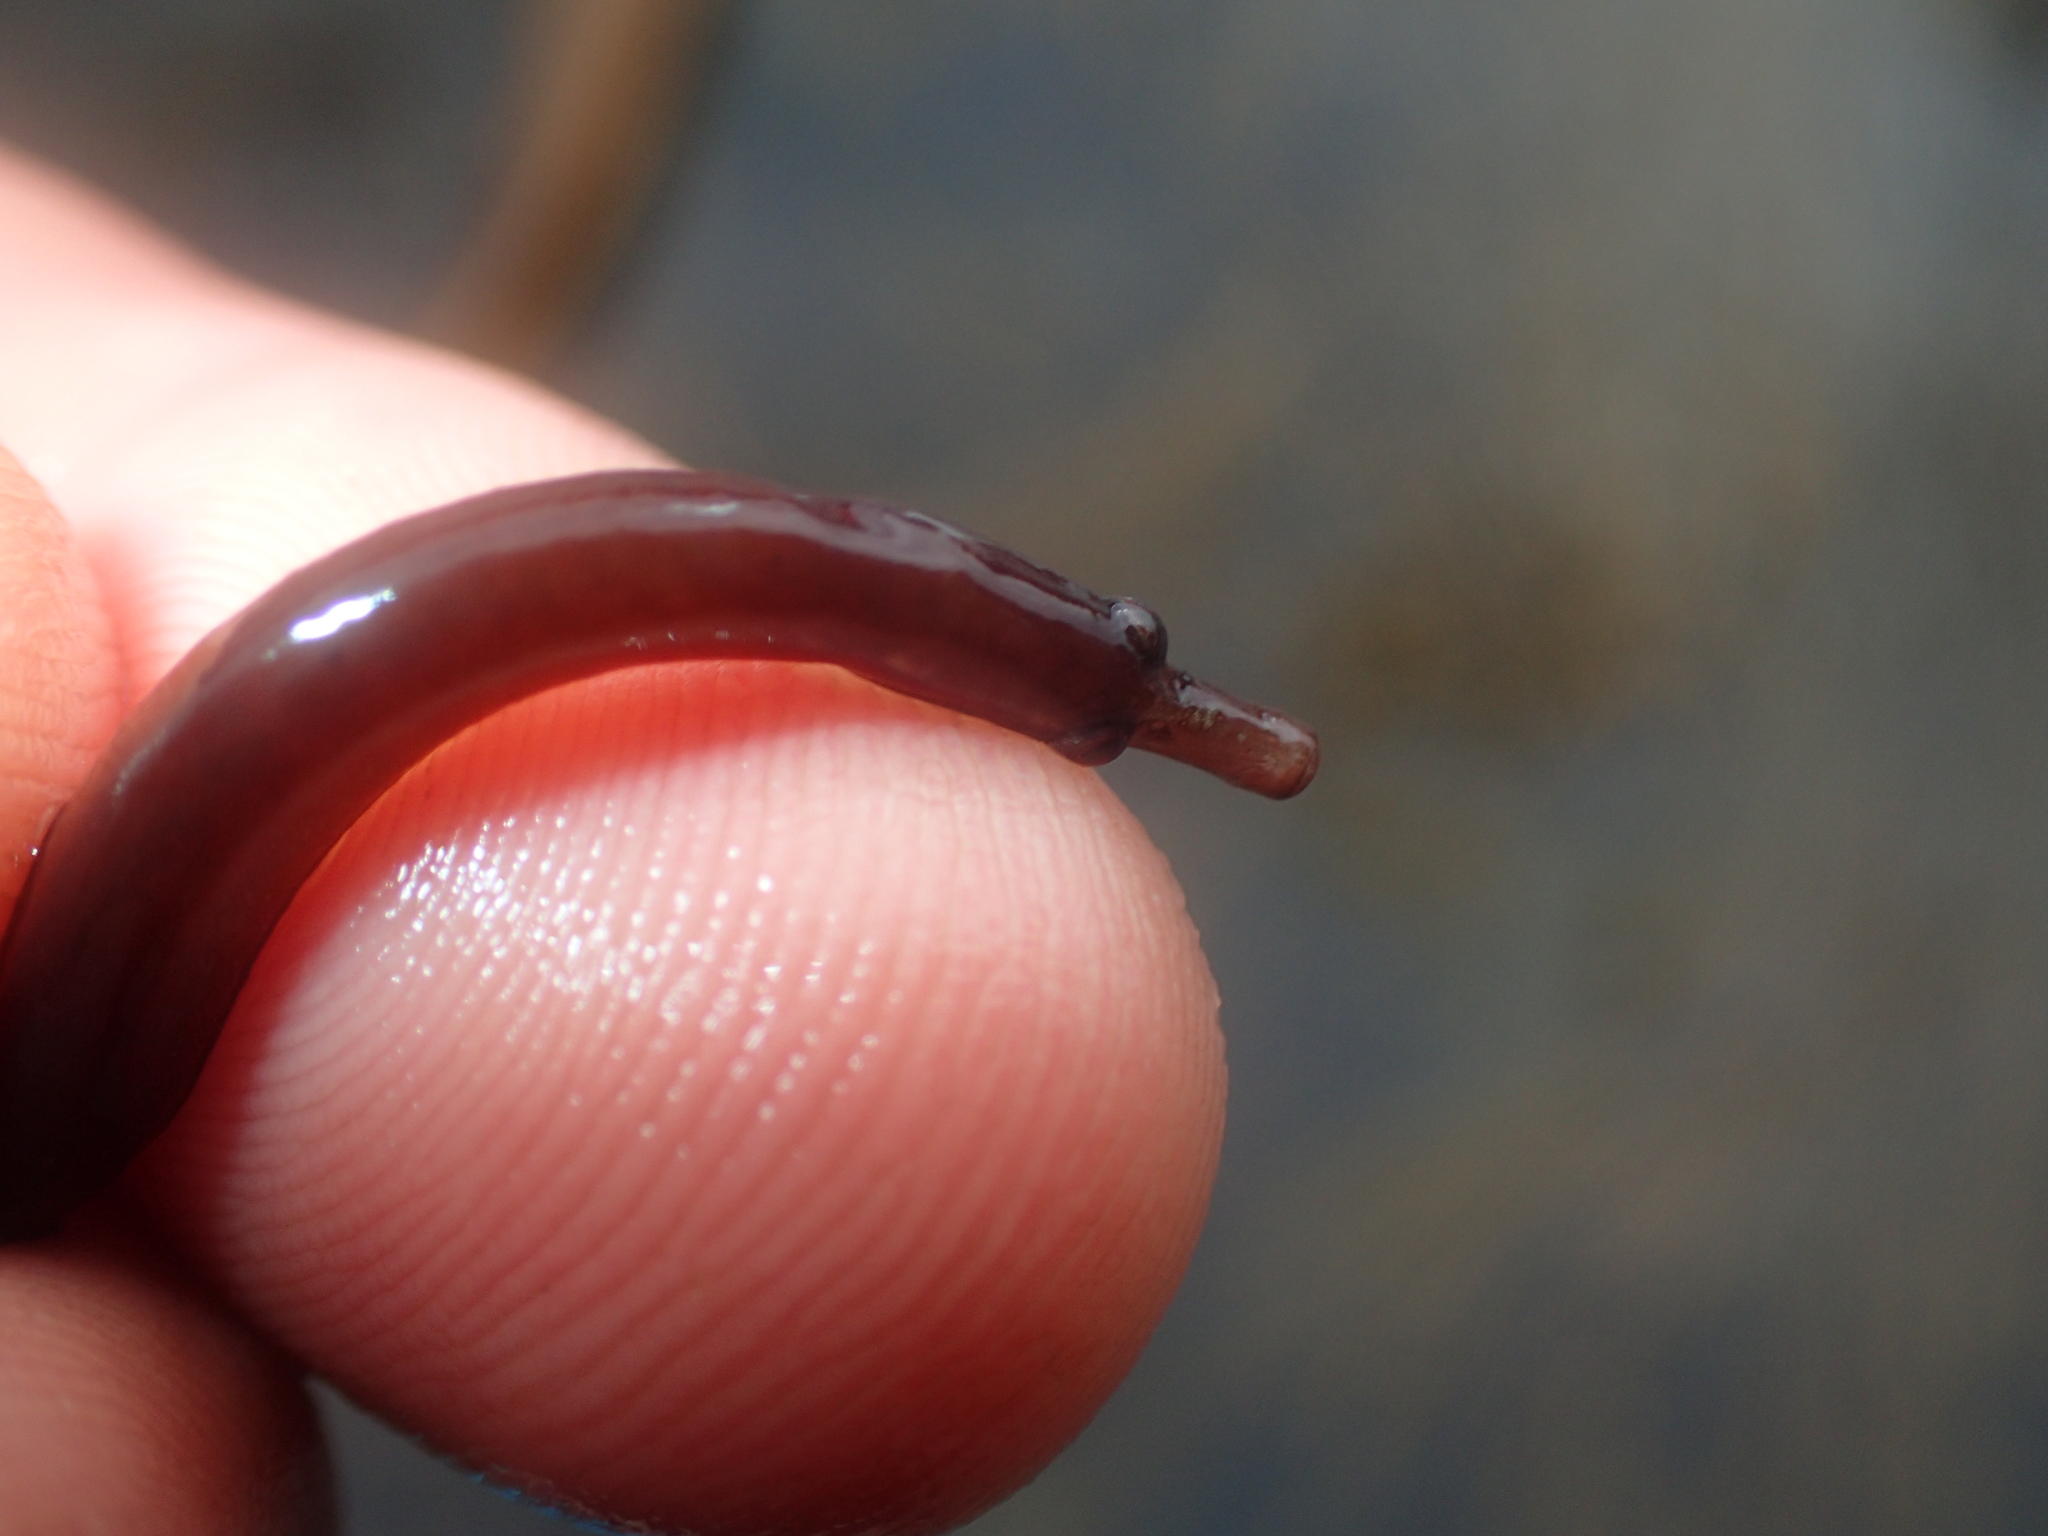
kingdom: Animalia
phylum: Chordata
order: Syngnathiformes
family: Syngnathidae
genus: Nerophis
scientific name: Nerophis lumbriciformis
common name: Worm pipefish
